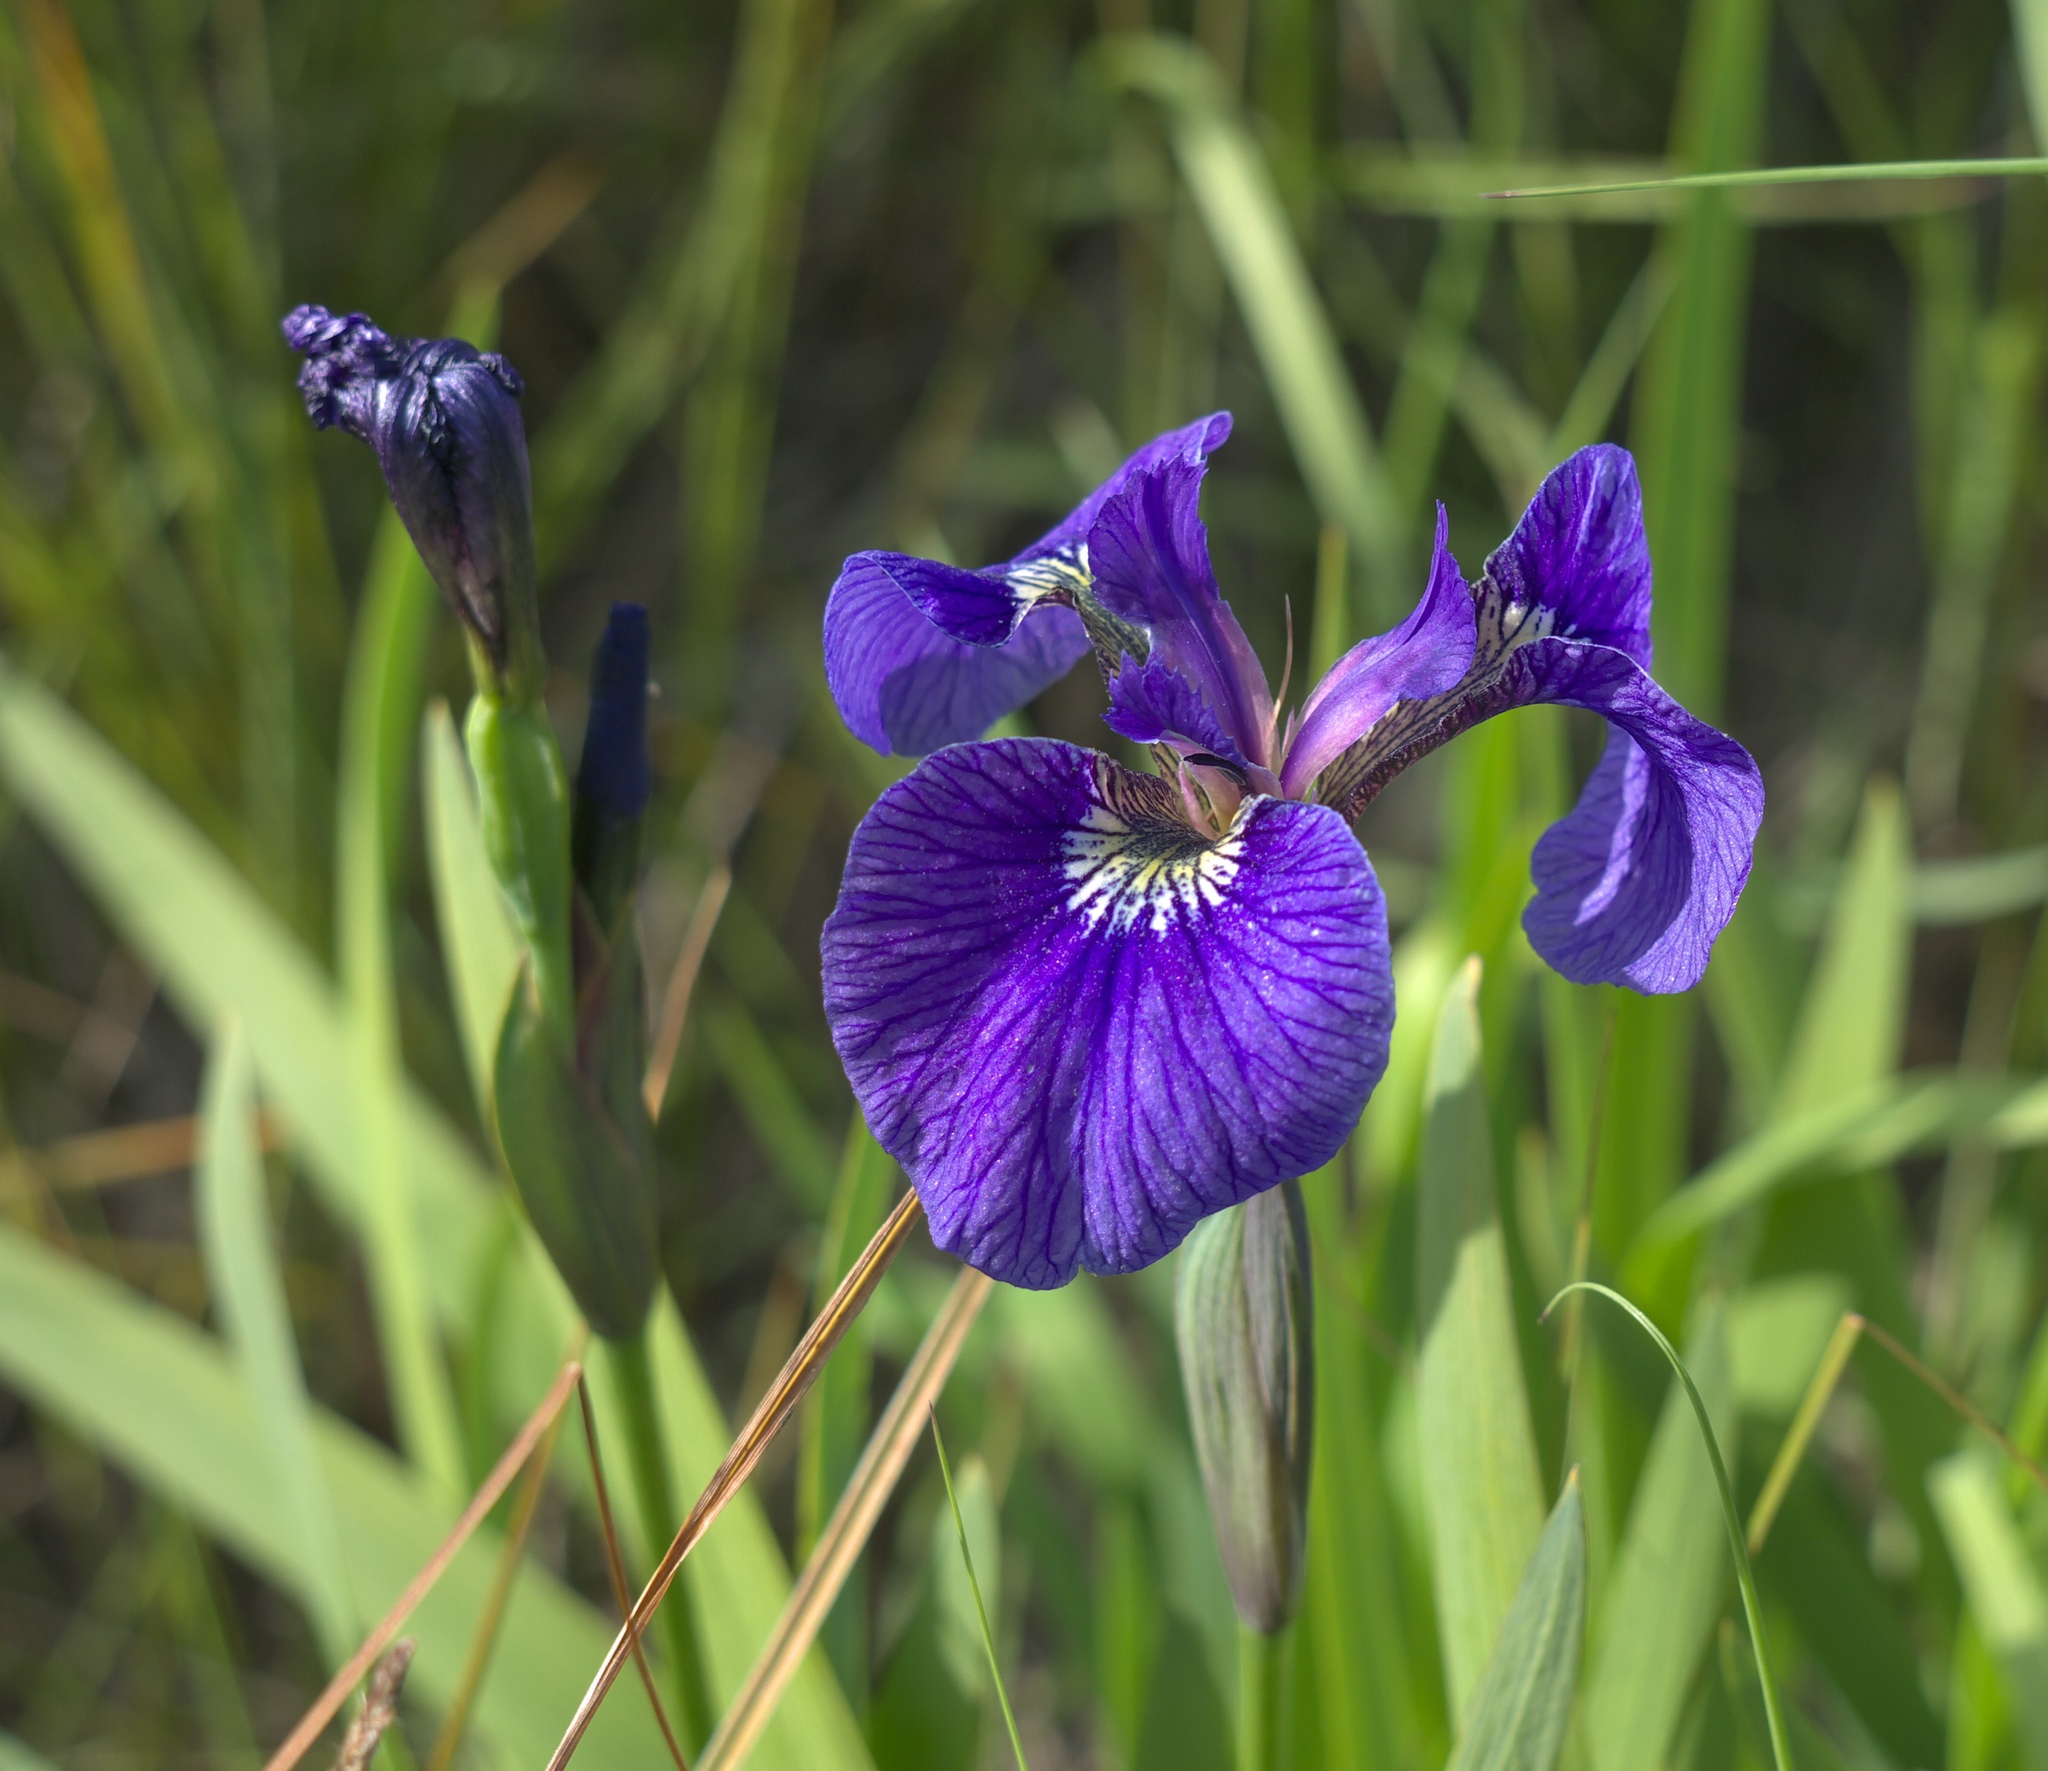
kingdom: Plantae
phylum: Tracheophyta
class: Liliopsida
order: Asparagales
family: Iridaceae
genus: Iris
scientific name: Iris setosa
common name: Arctic blue flag
